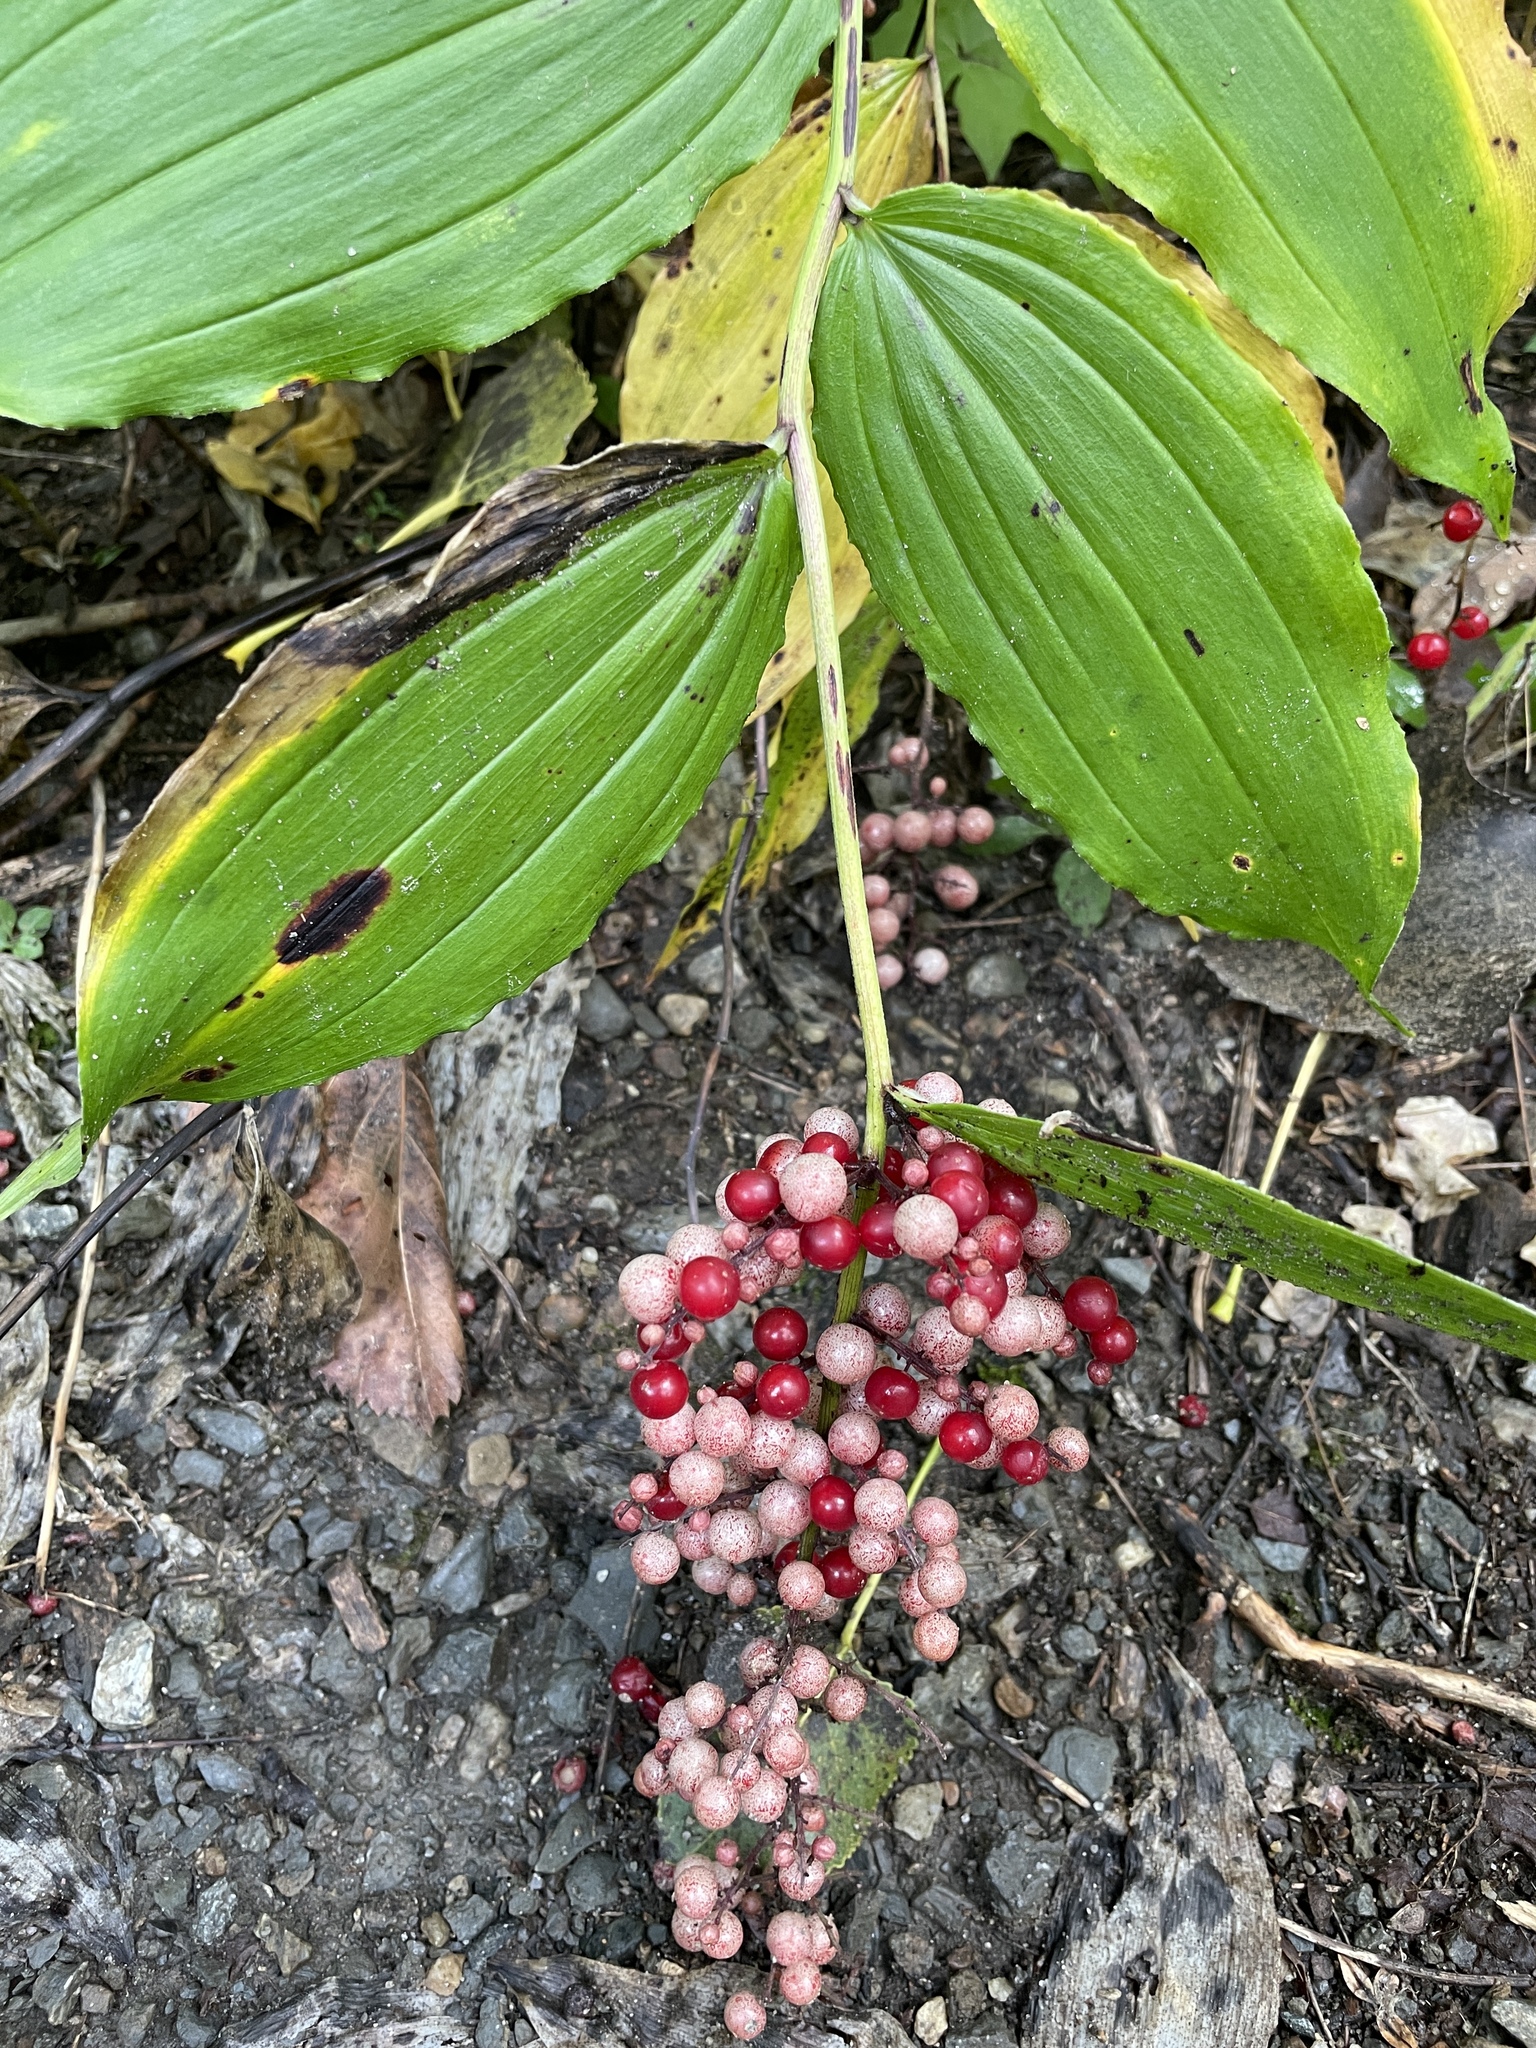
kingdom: Plantae
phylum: Tracheophyta
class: Liliopsida
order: Asparagales
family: Asparagaceae
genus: Maianthemum
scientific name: Maianthemum racemosum
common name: False spikenard
